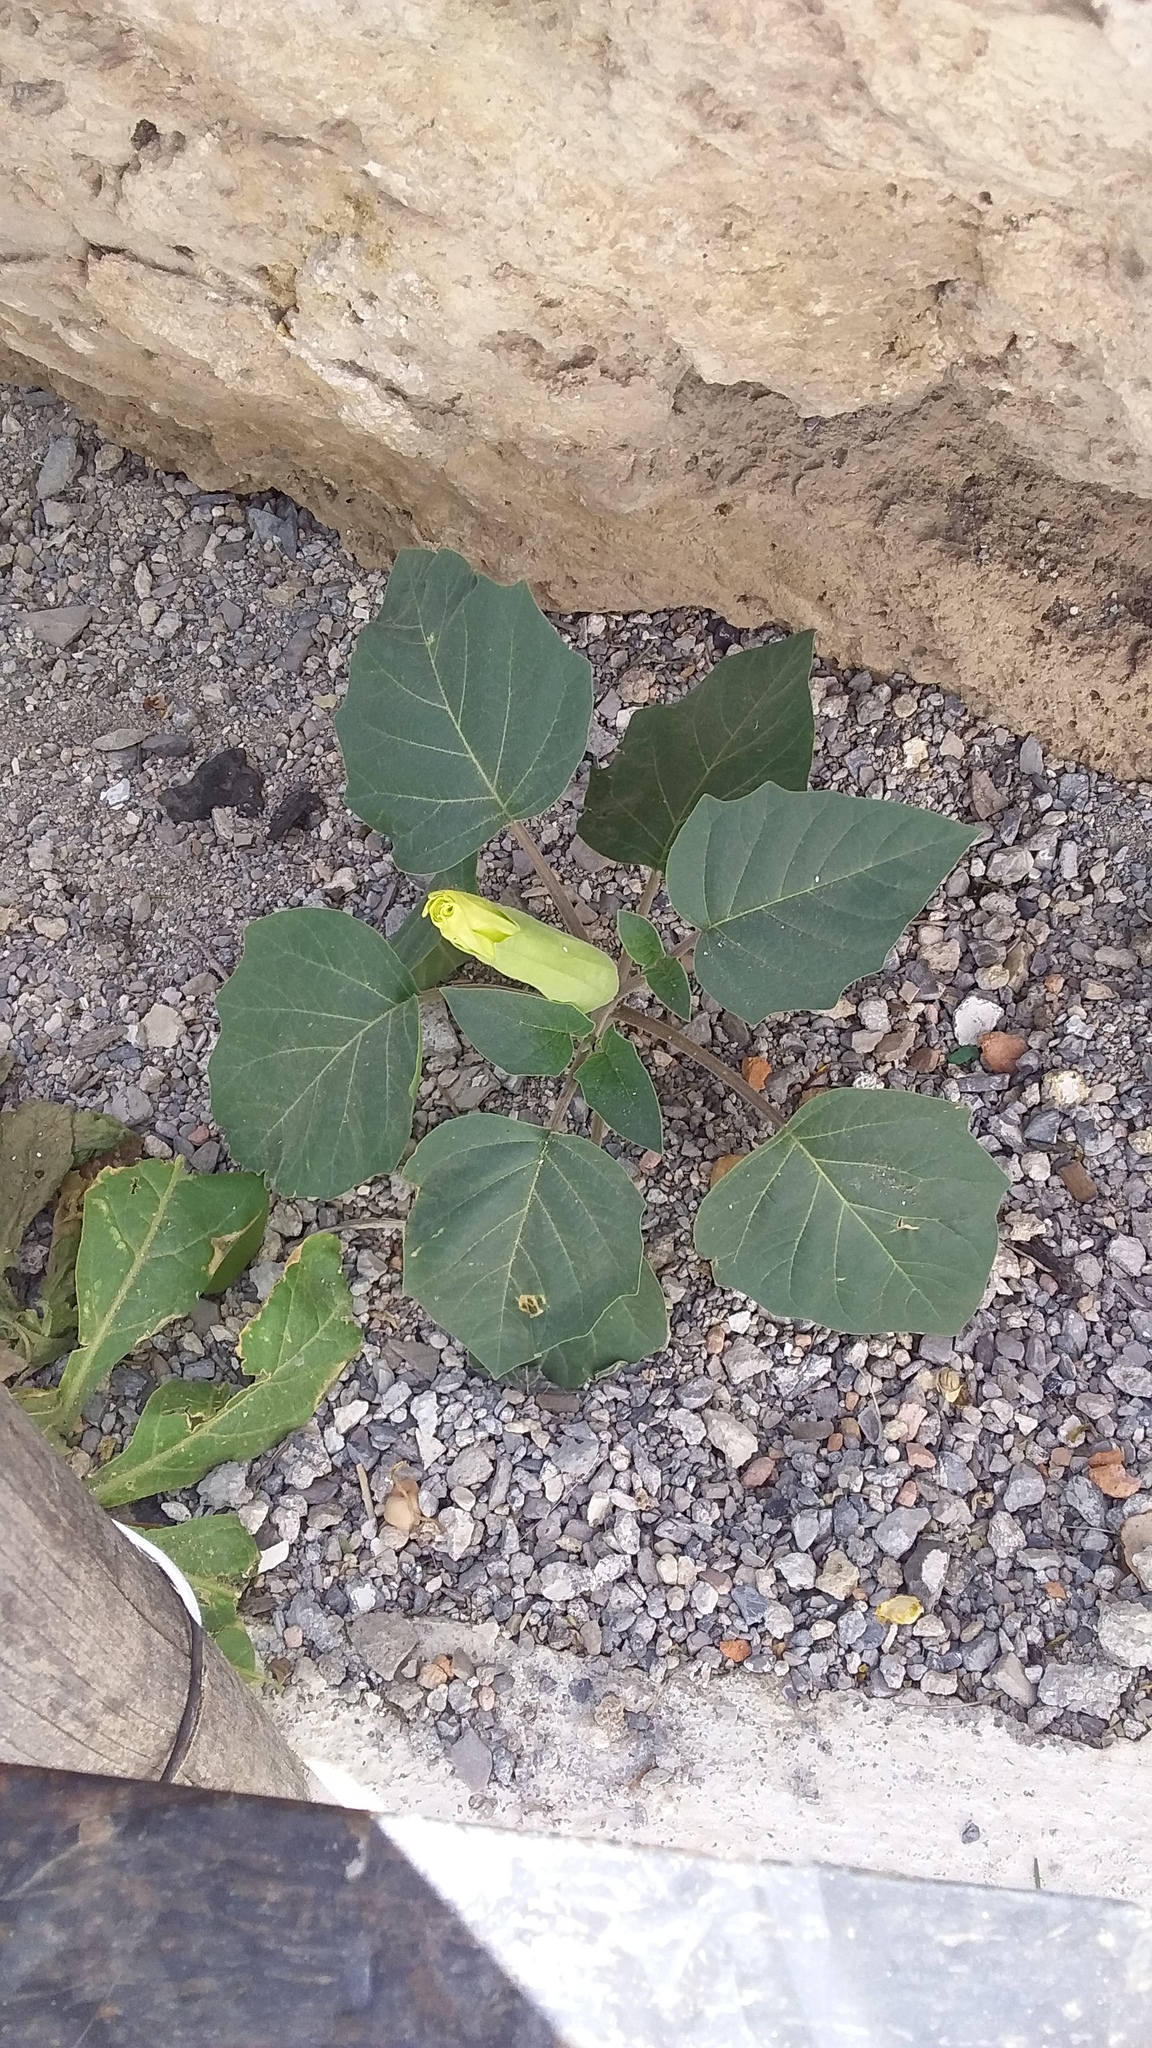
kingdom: Plantae
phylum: Tracheophyta
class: Magnoliopsida
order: Solanales
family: Solanaceae
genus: Datura
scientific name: Datura innoxia
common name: Downy thorn-apple
